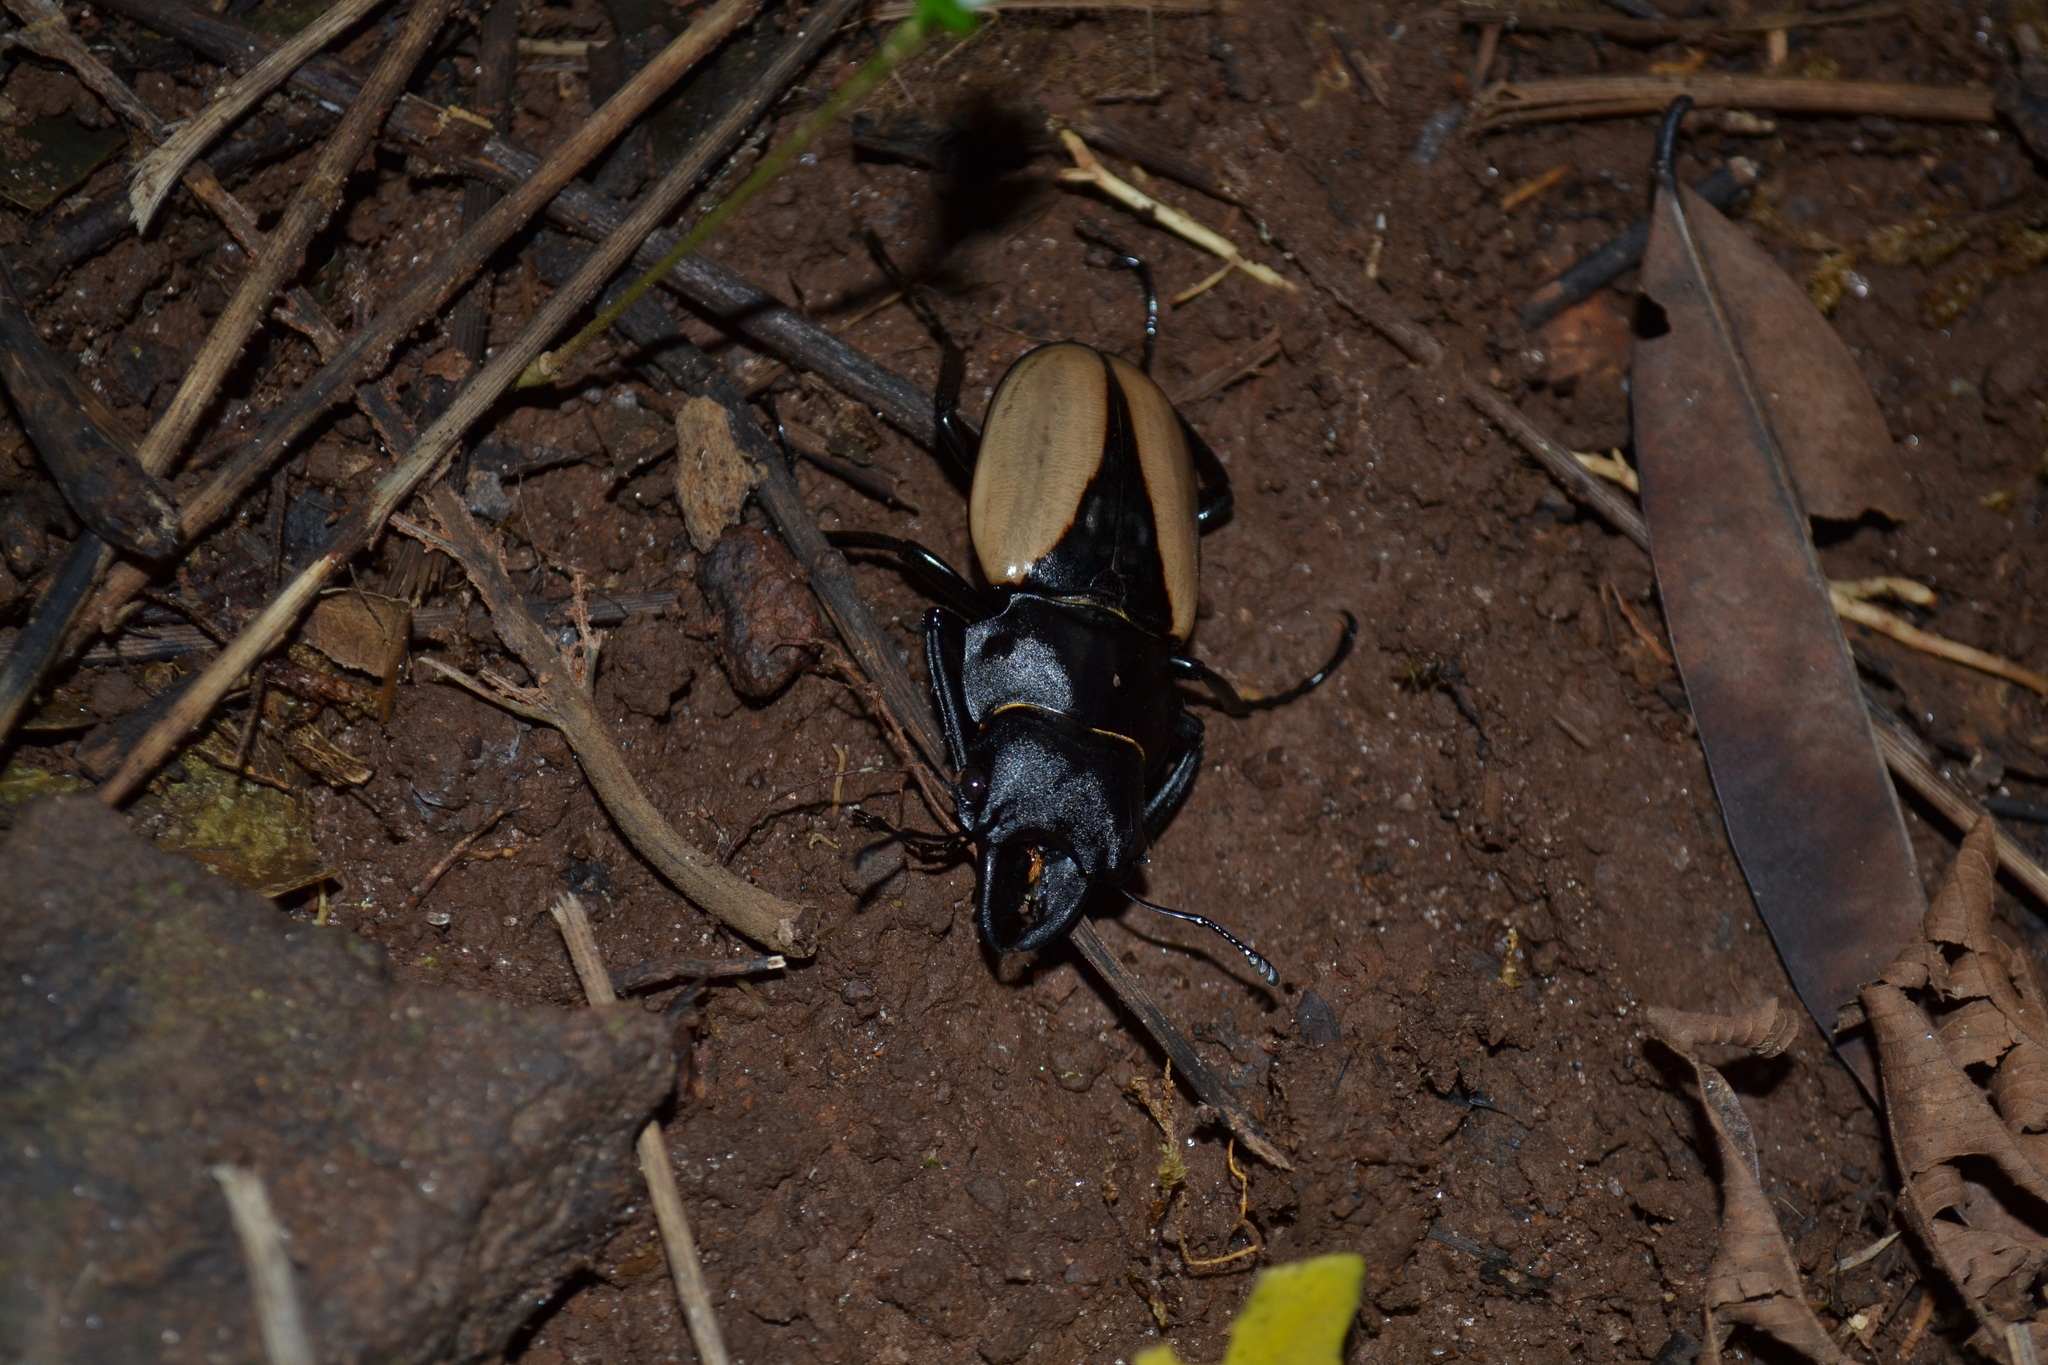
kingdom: Animalia
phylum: Arthropoda
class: Insecta
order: Coleoptera
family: Lucanidae
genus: Odontolabis
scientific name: Odontolabis burmeisteri
